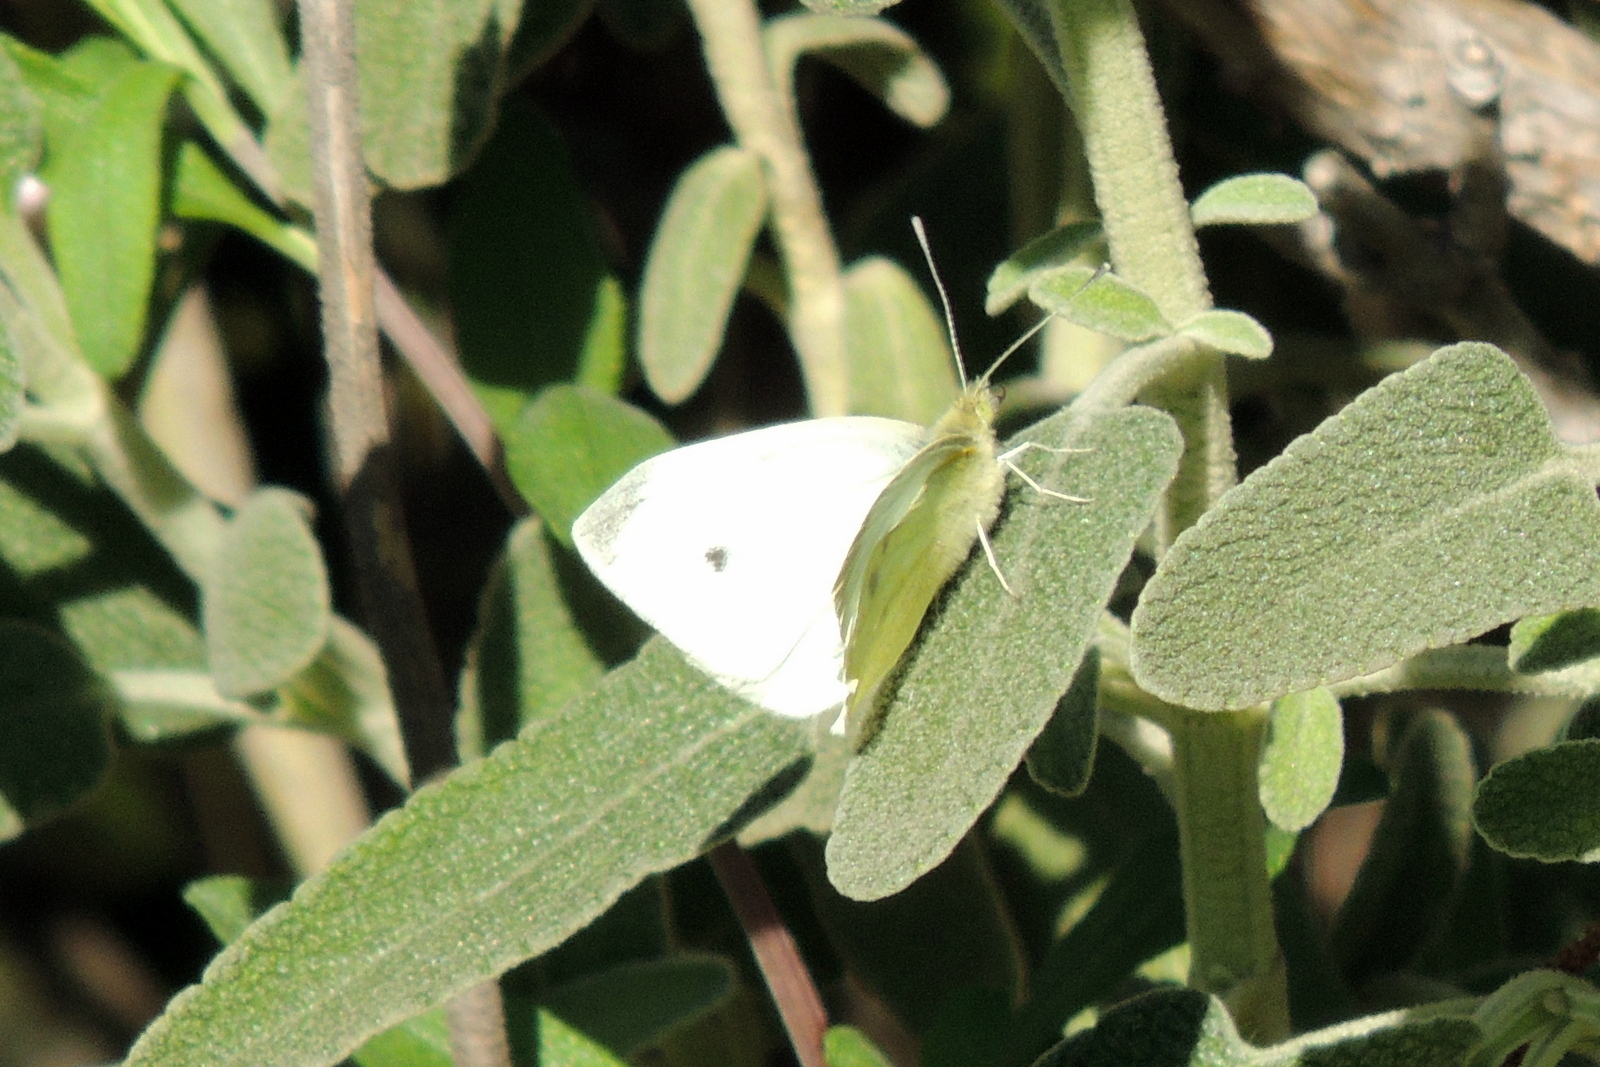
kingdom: Animalia
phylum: Arthropoda
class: Insecta
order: Lepidoptera
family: Pieridae
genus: Pieris
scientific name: Pieris rapae
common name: Small white
